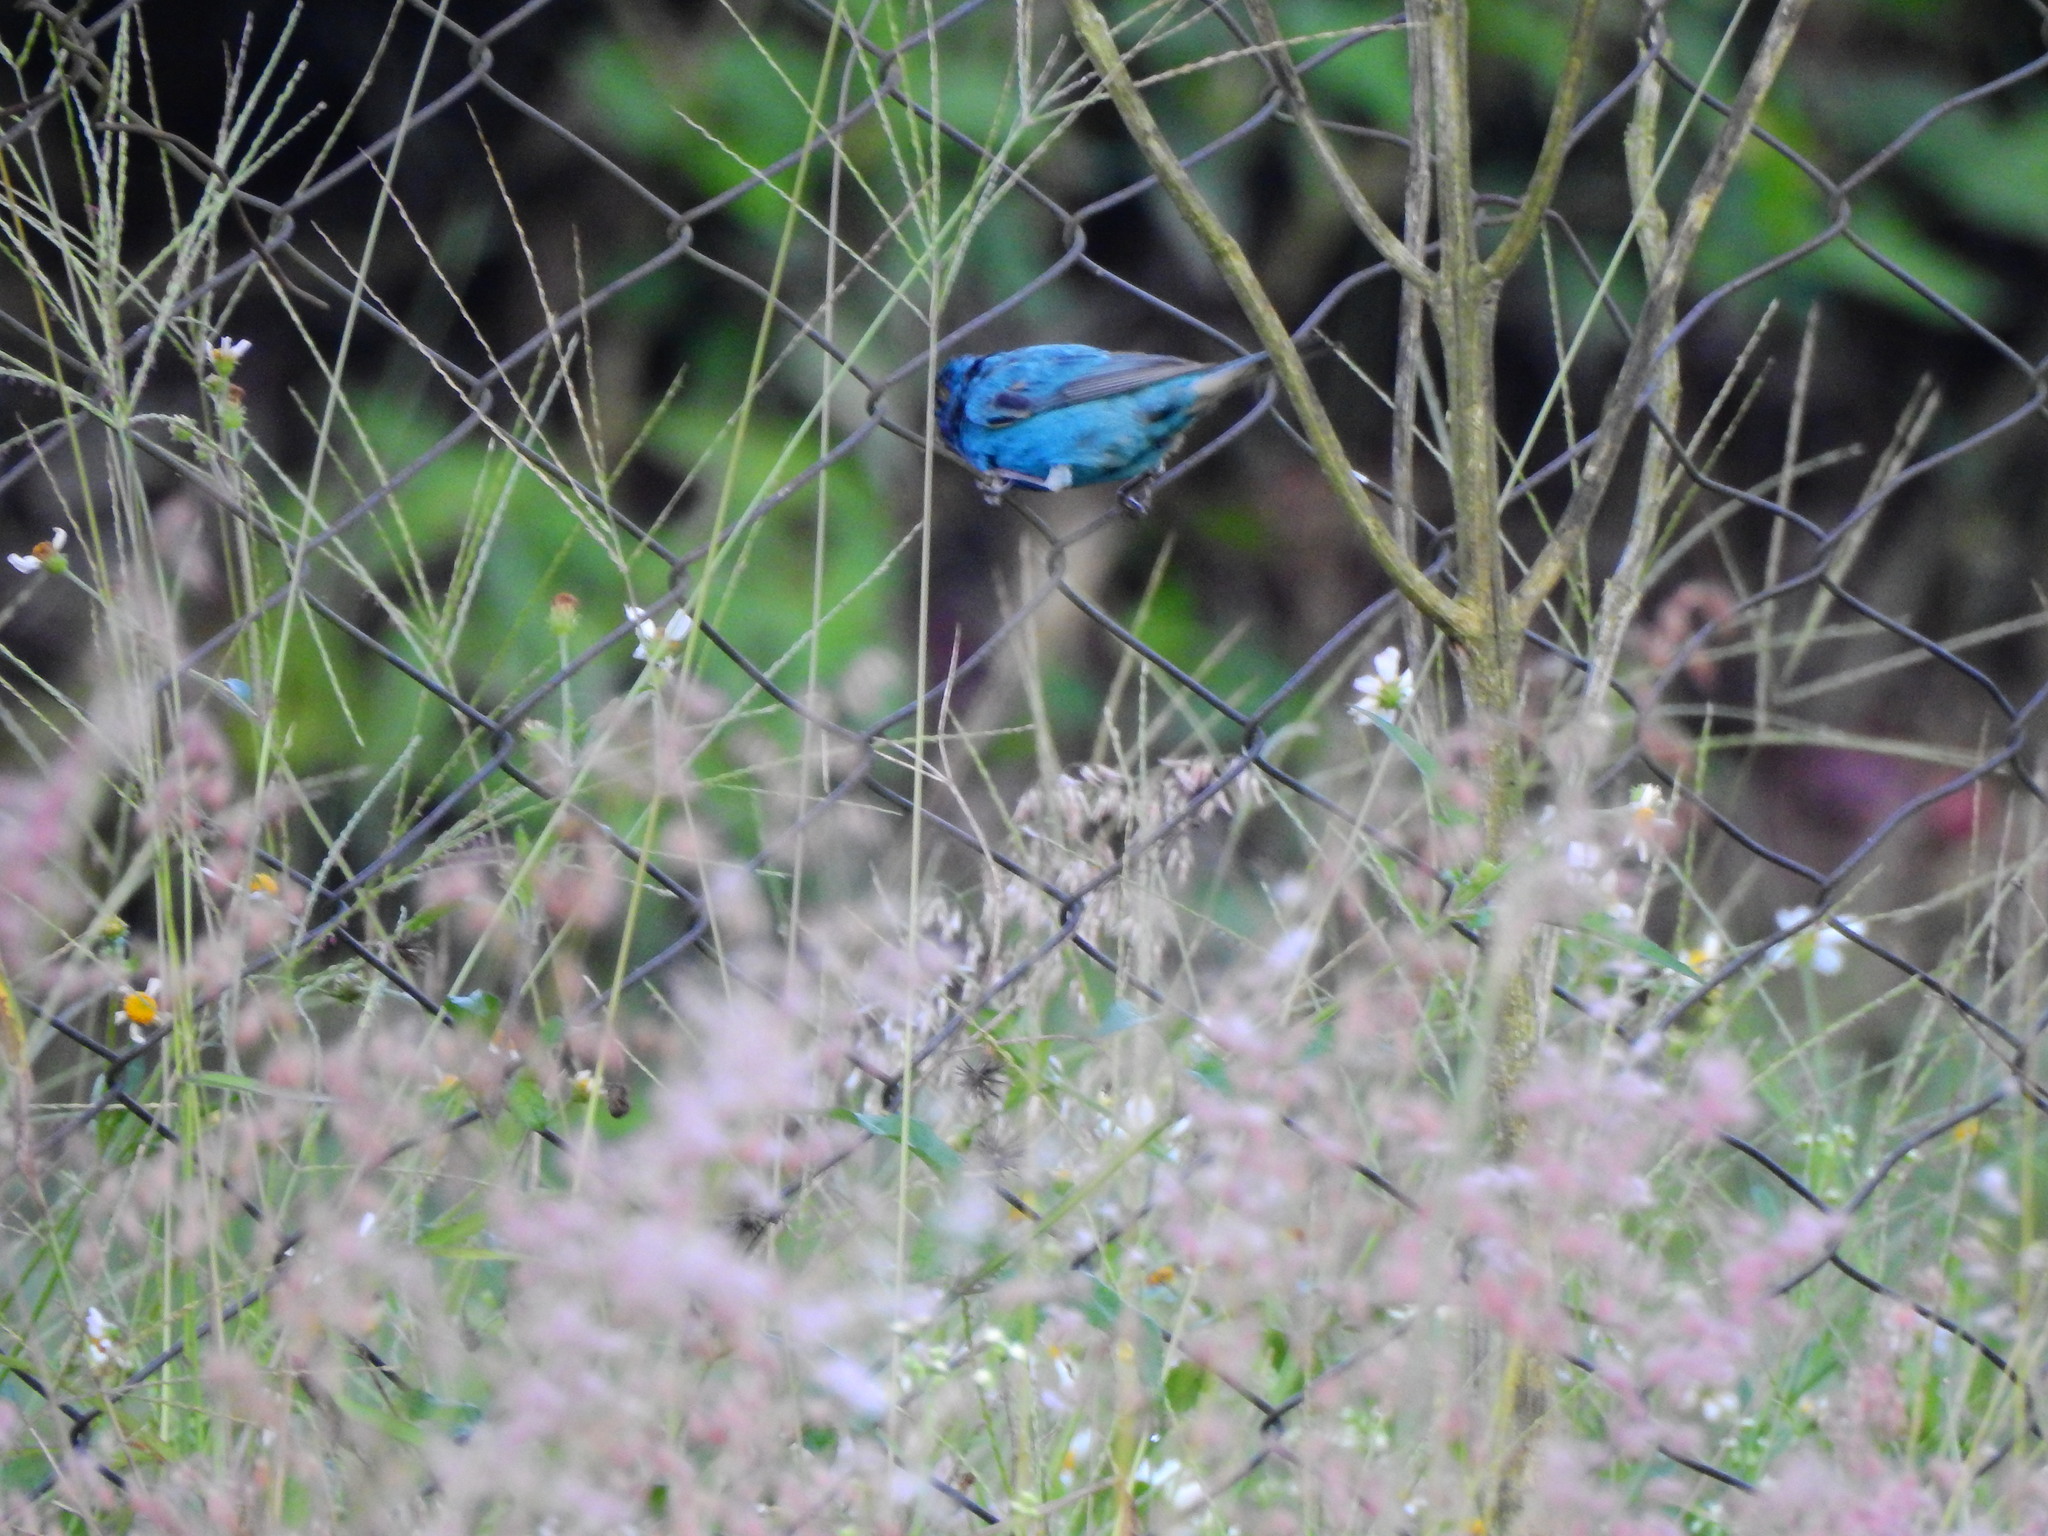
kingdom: Animalia
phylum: Chordata
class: Aves
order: Passeriformes
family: Cardinalidae
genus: Passerina
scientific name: Passerina cyanea
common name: Indigo bunting
